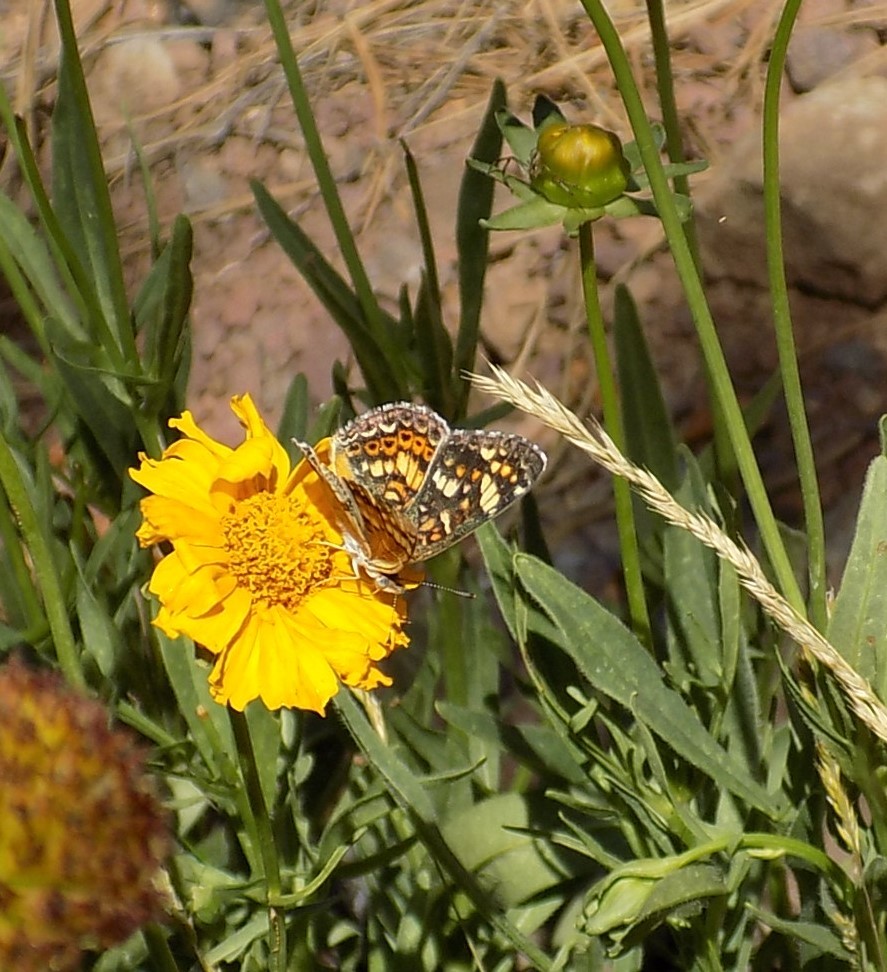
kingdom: Animalia
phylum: Arthropoda
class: Insecta
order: Lepidoptera
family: Nymphalidae
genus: Phyciodes
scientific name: Phyciodes tharos
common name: Pearl crescent
